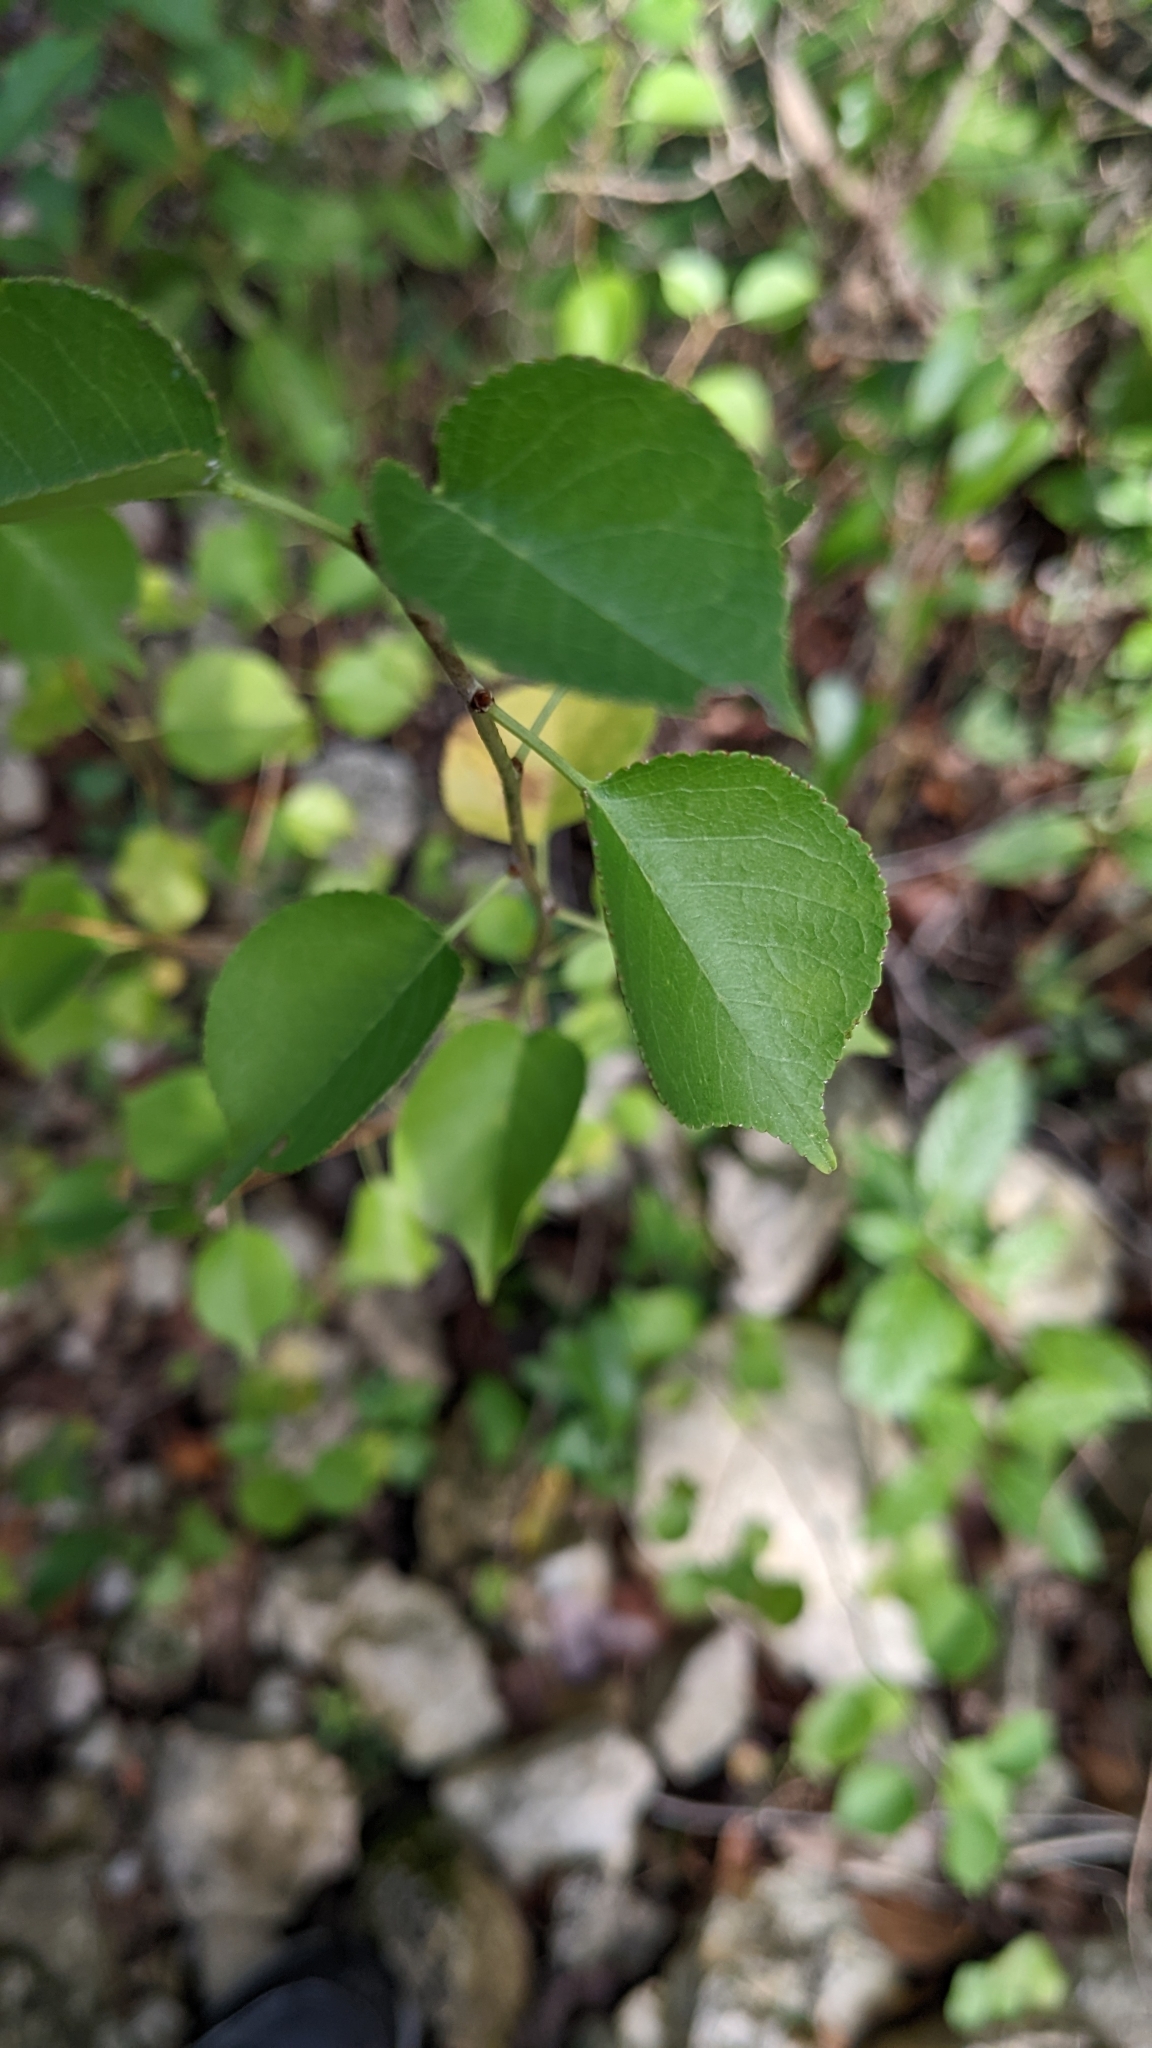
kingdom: Plantae
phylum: Tracheophyta
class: Magnoliopsida
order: Rosales
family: Rosaceae
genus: Prunus
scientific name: Prunus mahaleb
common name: Mahaleb cherry
